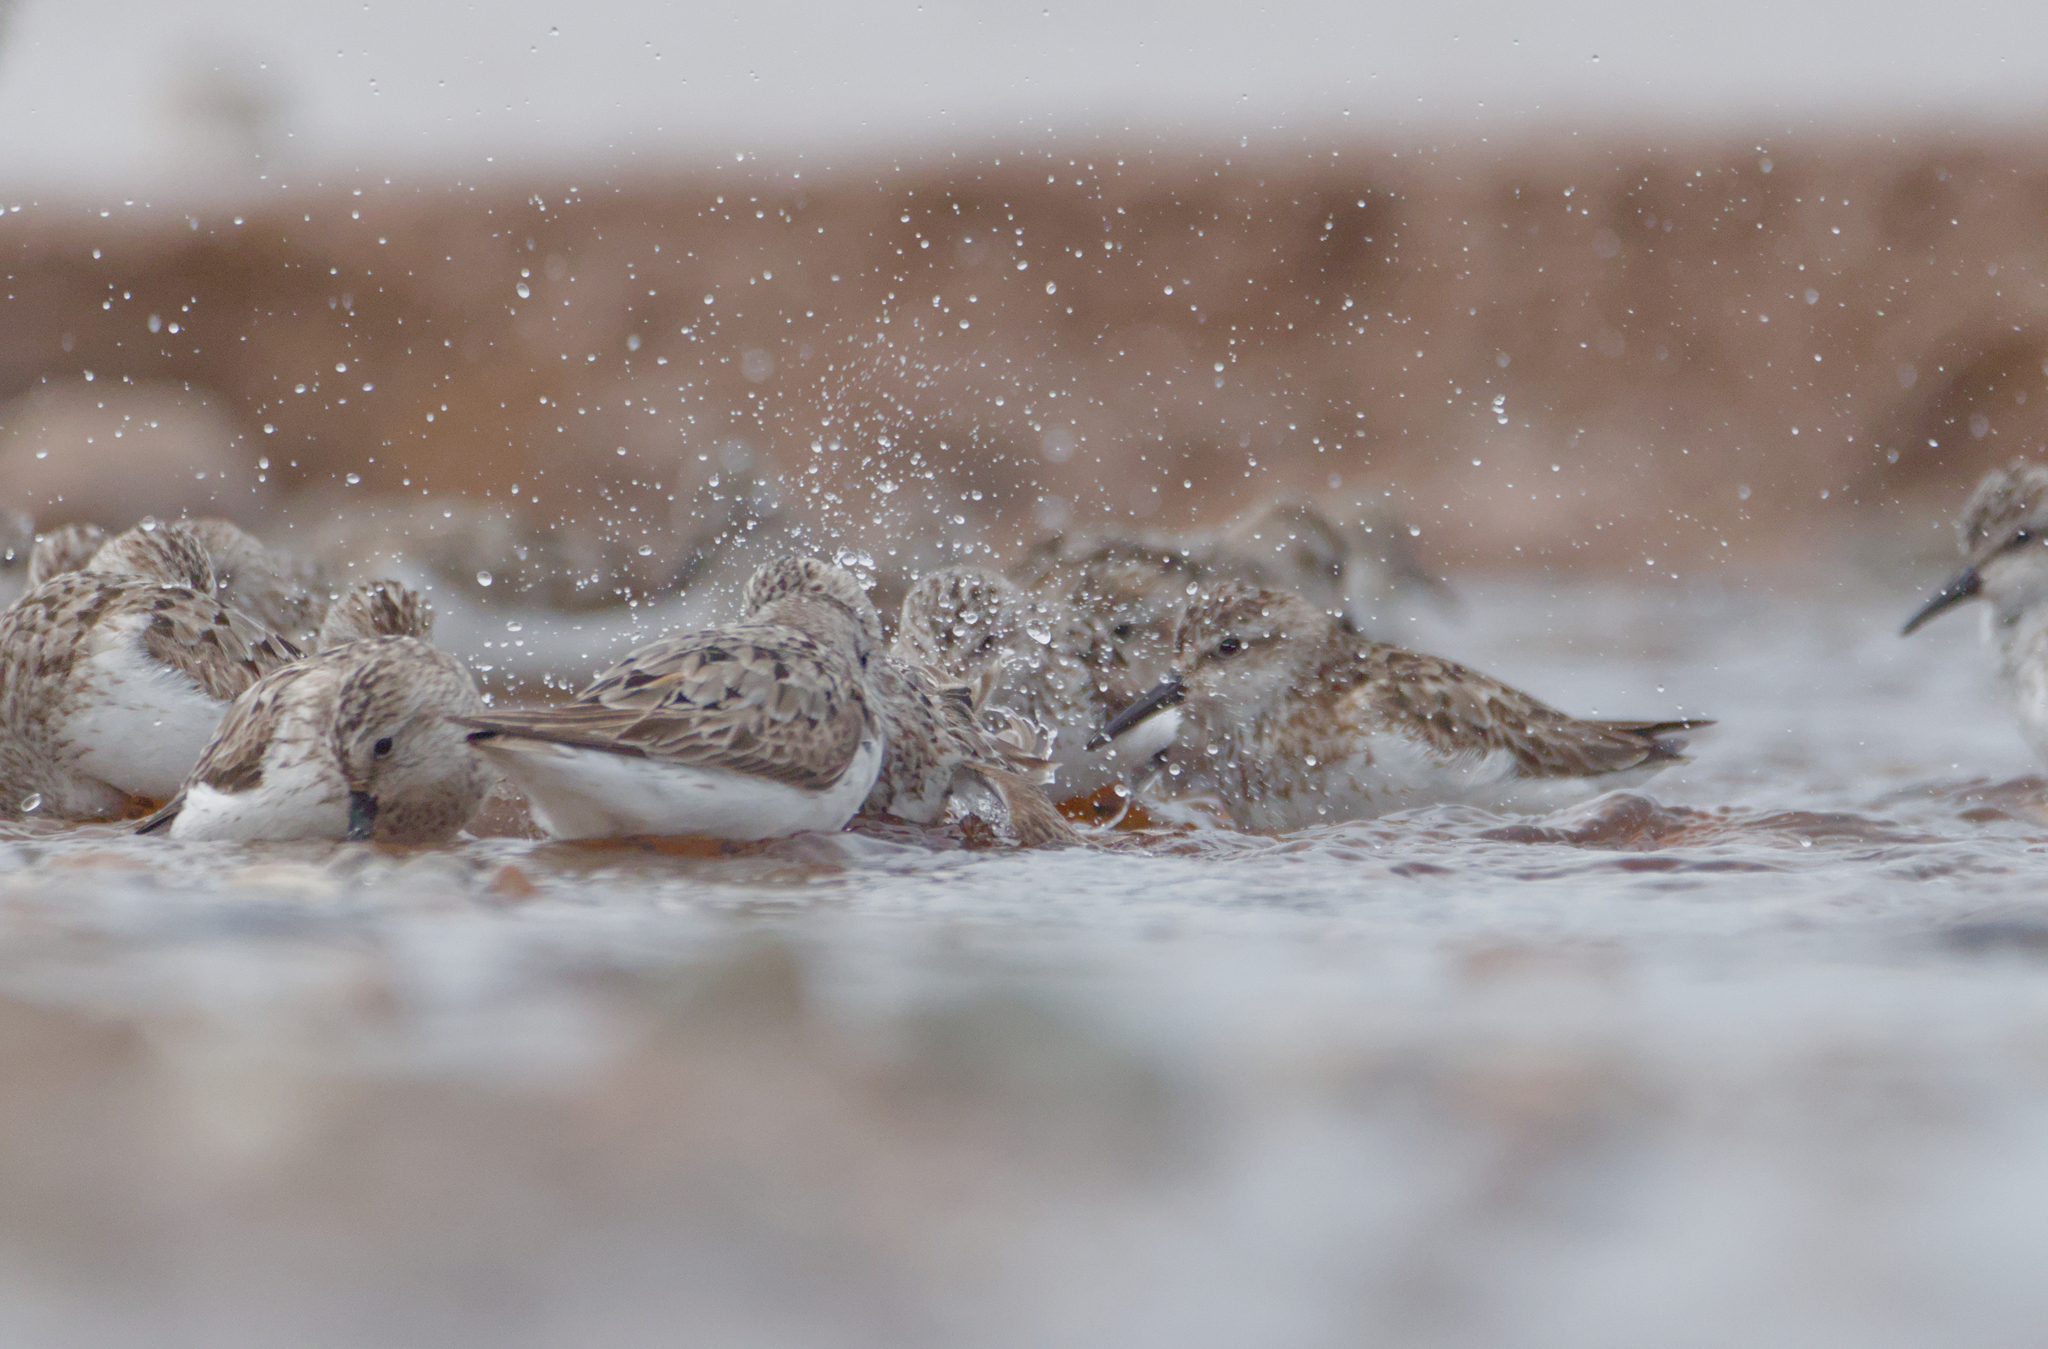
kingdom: Animalia
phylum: Chordata
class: Aves
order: Charadriiformes
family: Scolopacidae
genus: Calidris
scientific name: Calidris pusilla
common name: Semipalmated sandpiper
